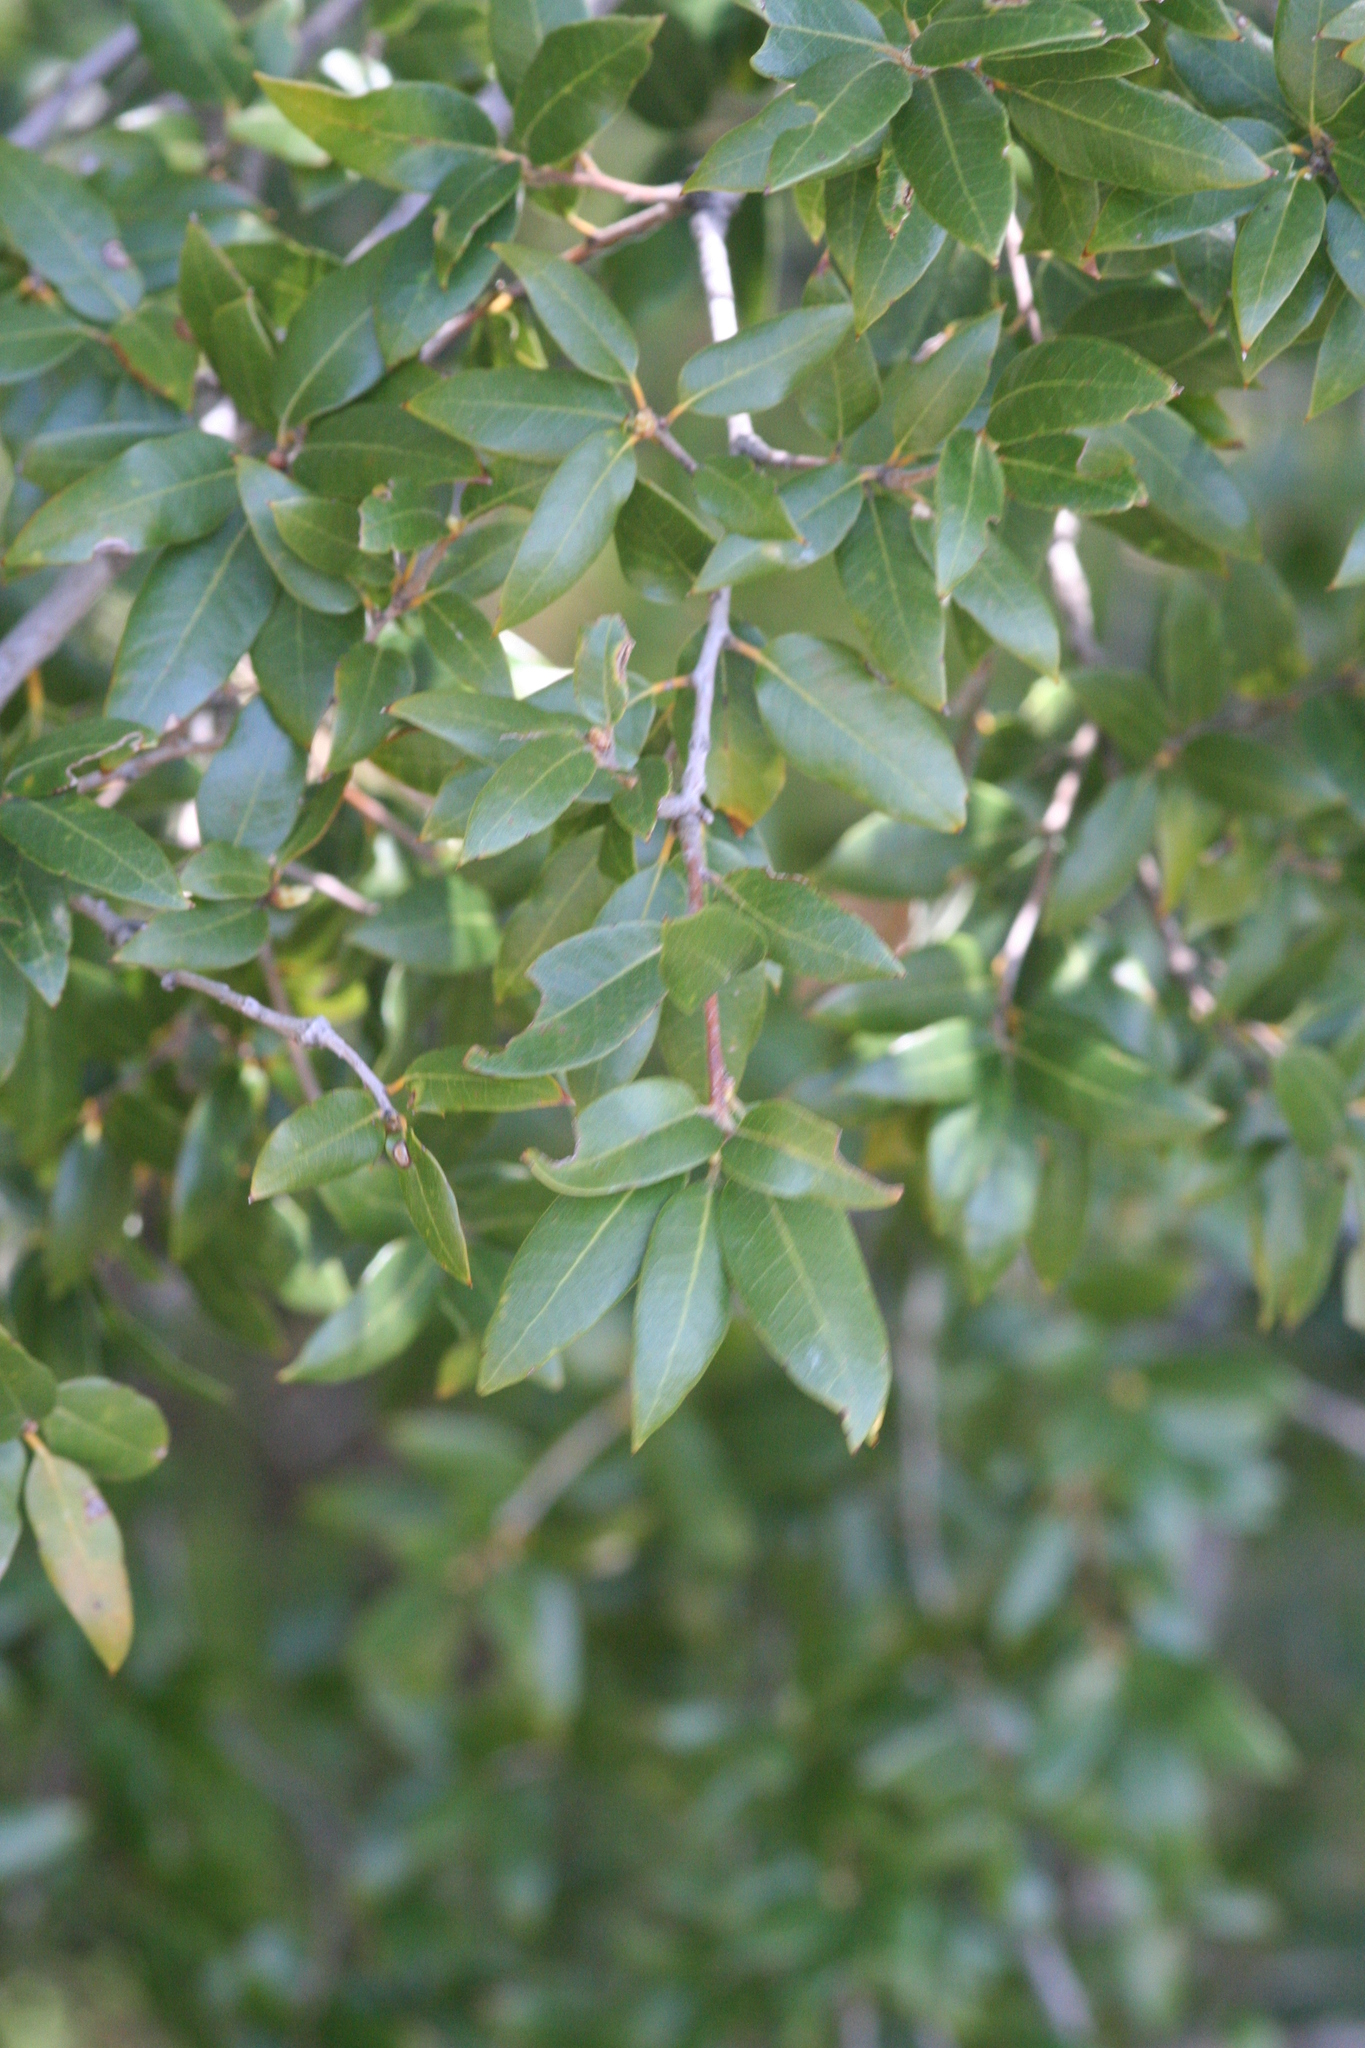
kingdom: Plantae
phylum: Tracheophyta
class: Magnoliopsida
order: Fagales
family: Fagaceae
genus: Quercus
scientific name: Quercus chrysolepis
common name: Canyon live oak
